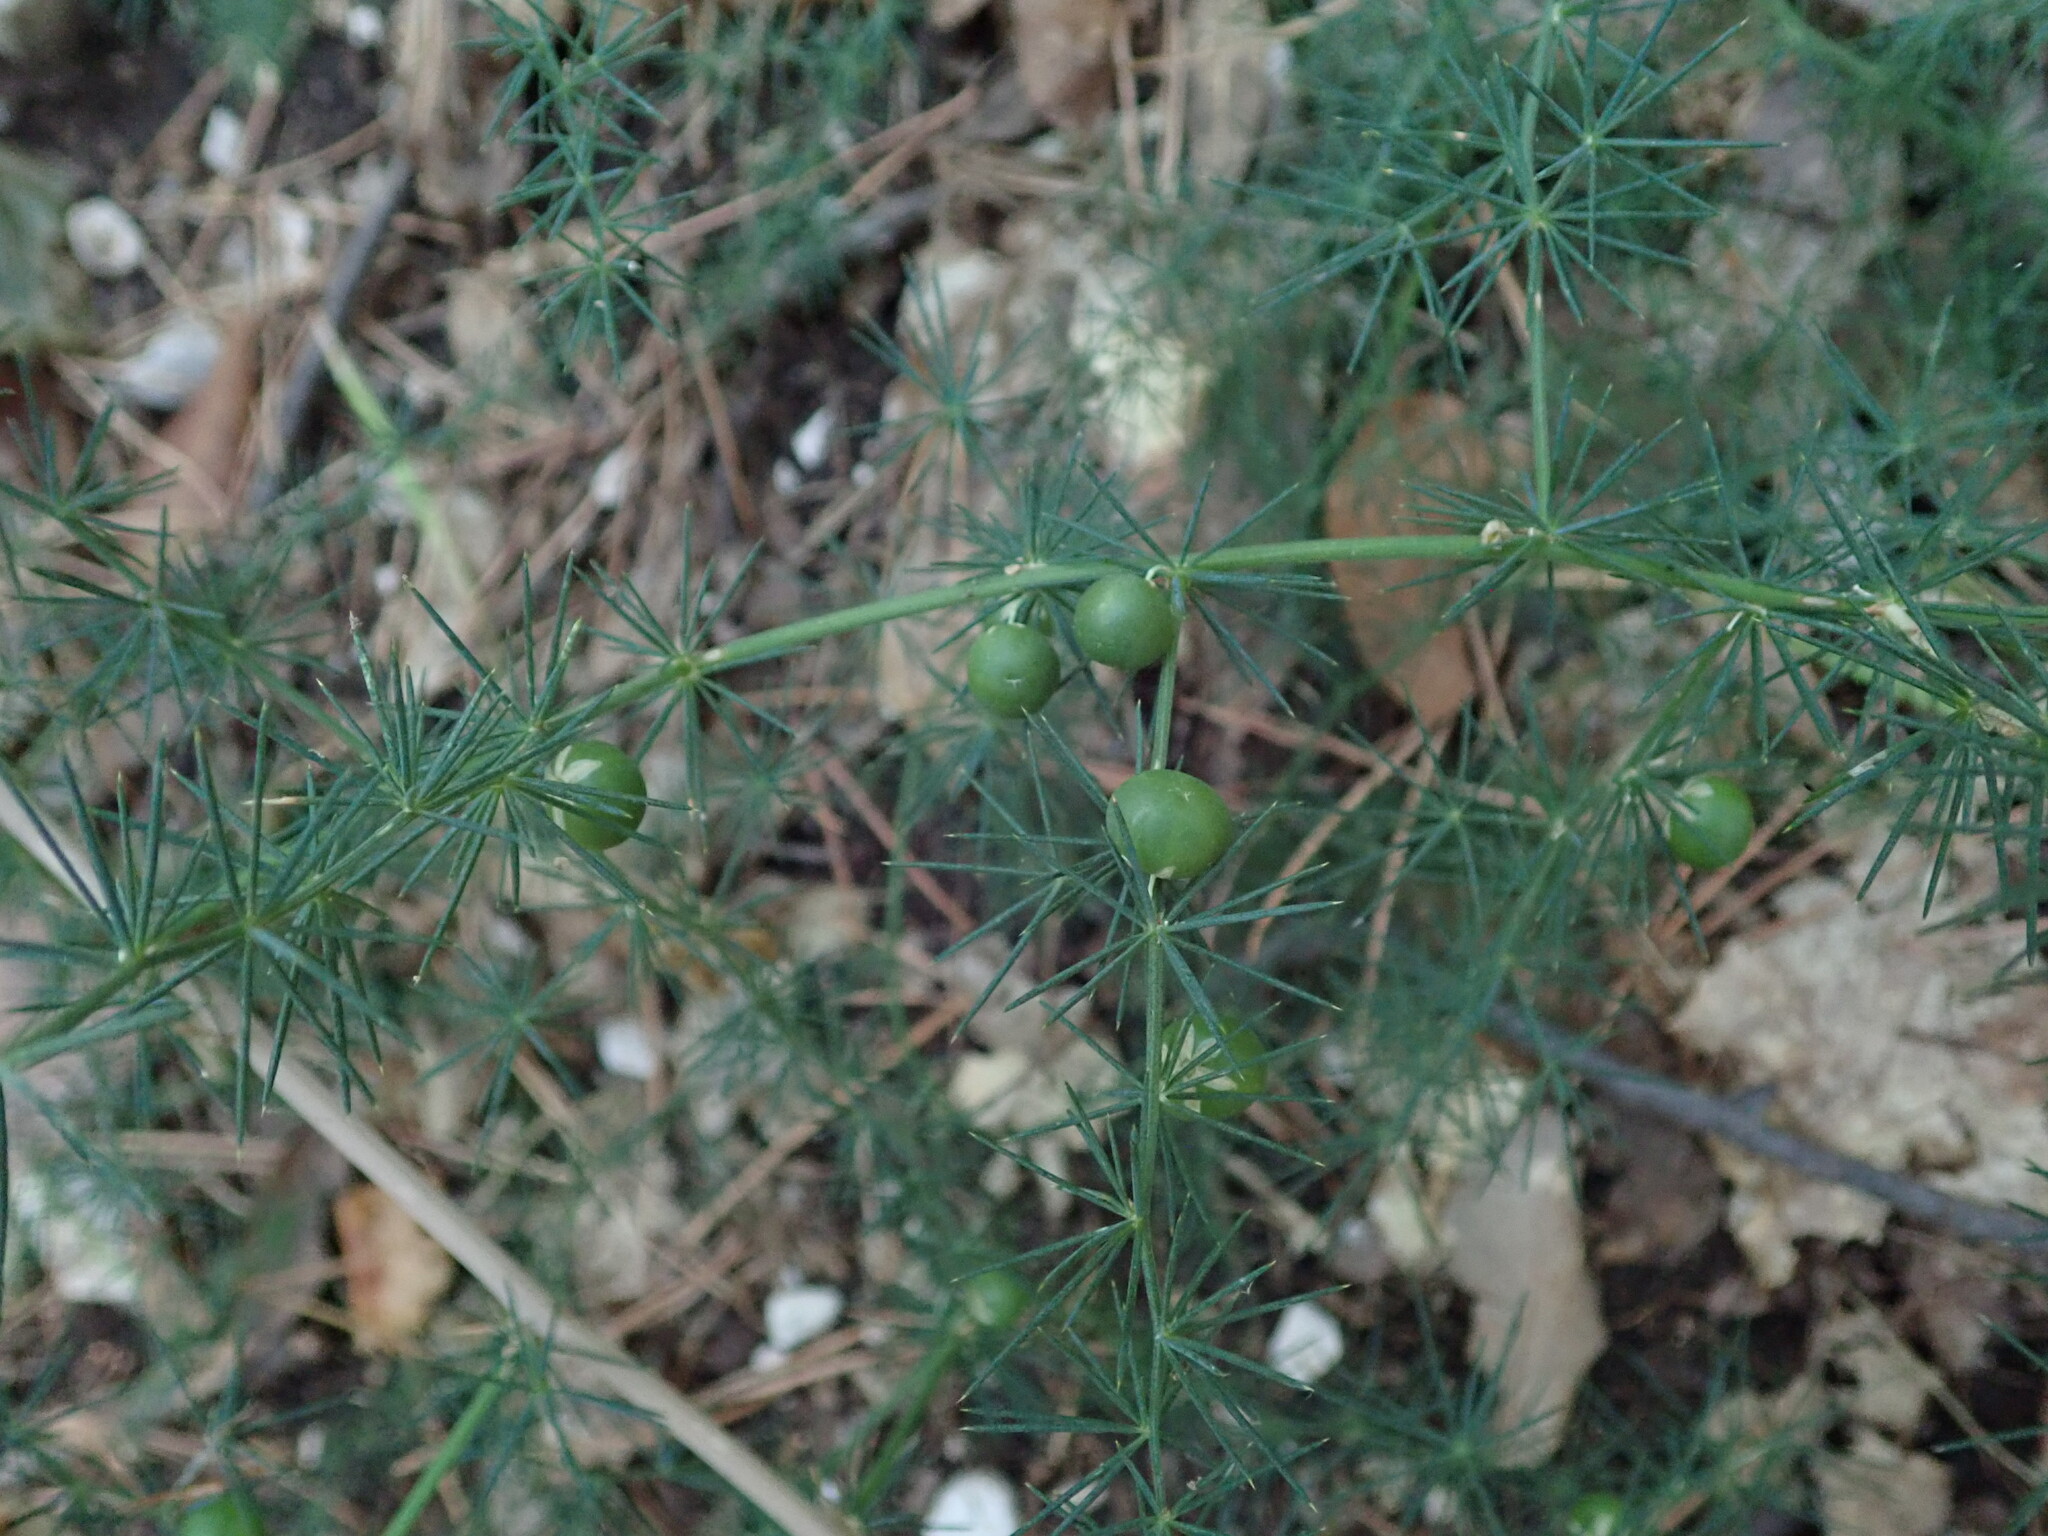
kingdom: Plantae
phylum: Tracheophyta
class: Liliopsida
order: Asparagales
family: Asparagaceae
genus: Asparagus
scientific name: Asparagus acutifolius
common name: Wild asparagus
